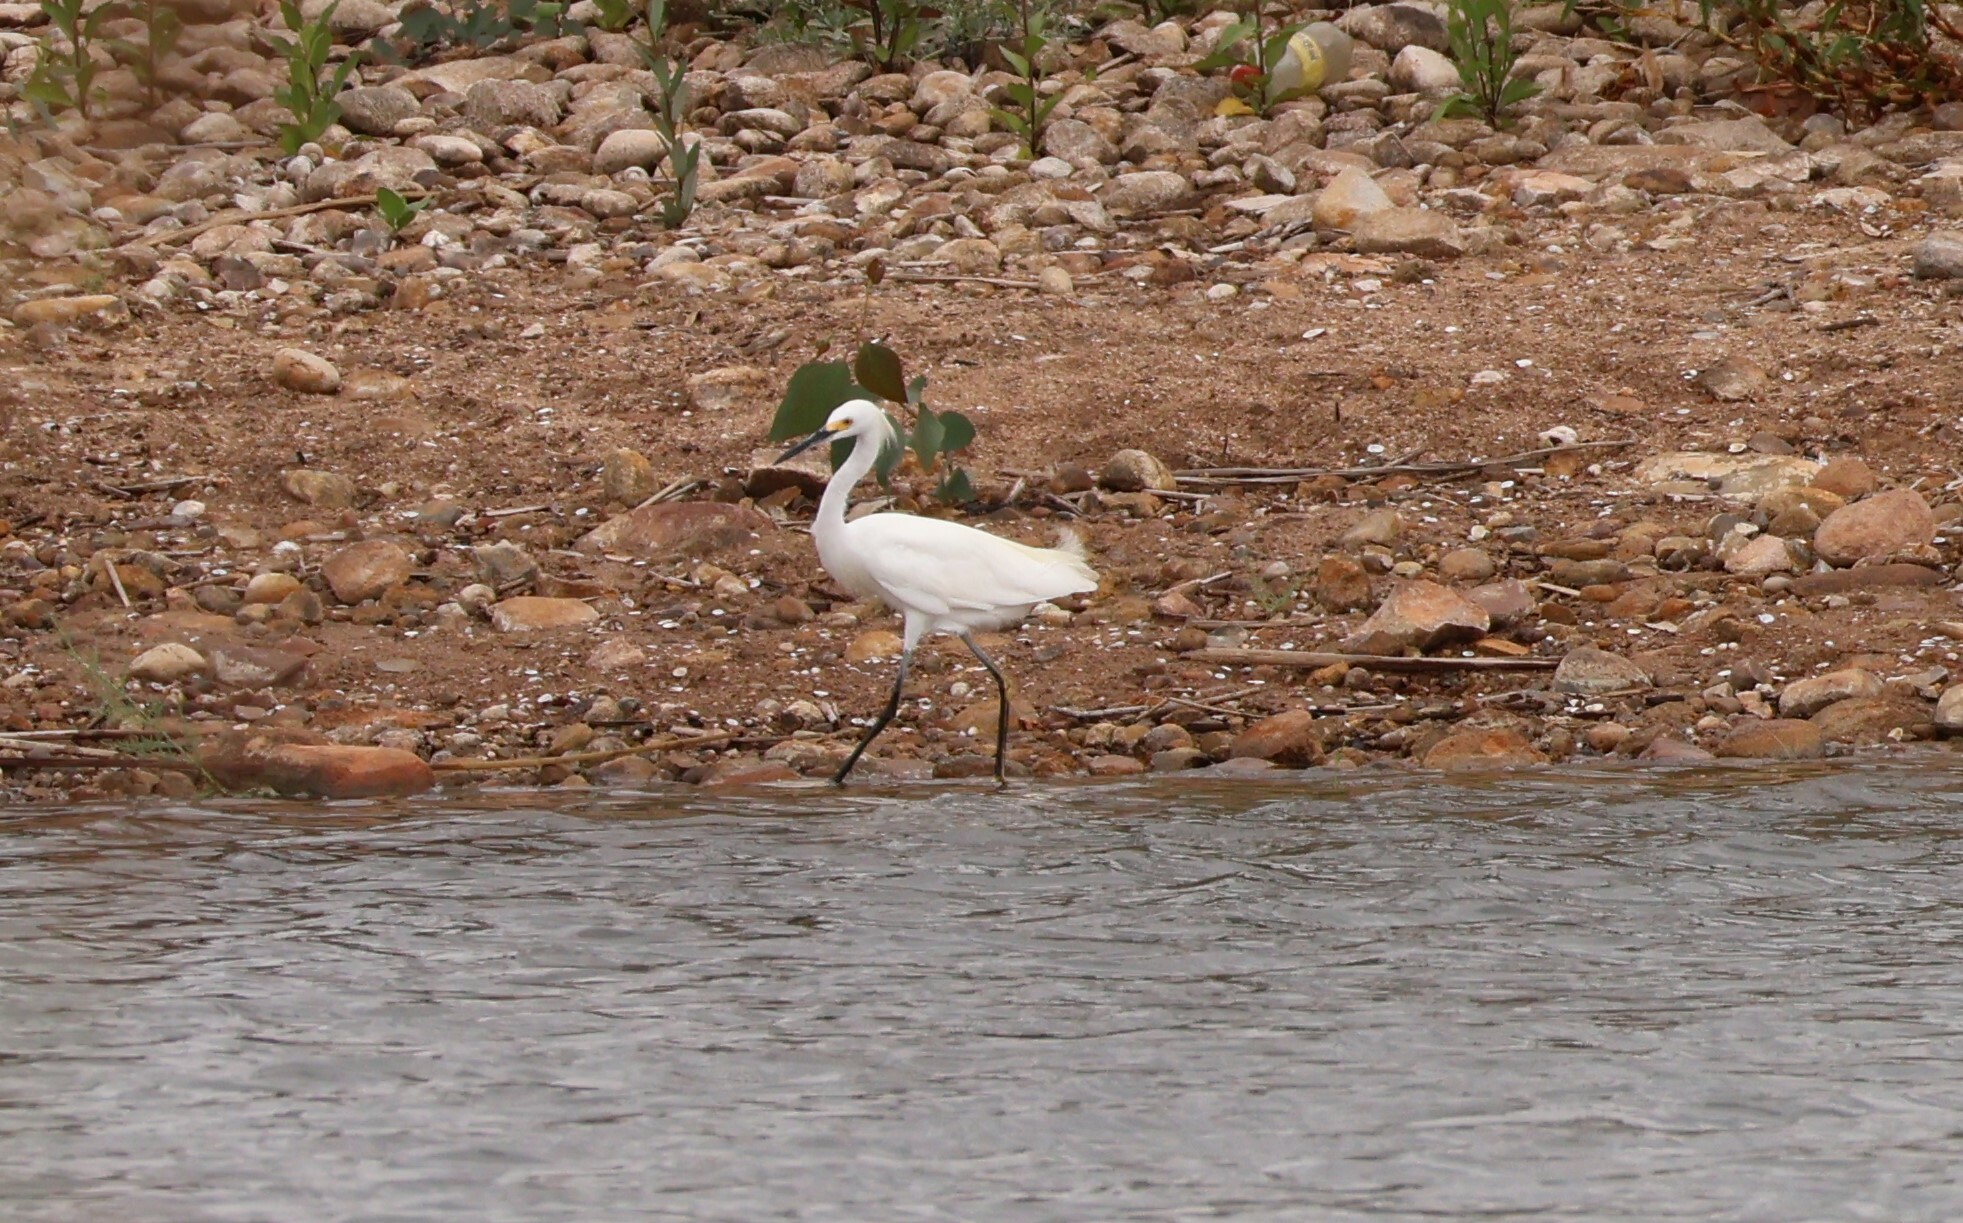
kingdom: Animalia
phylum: Chordata
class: Aves
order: Pelecaniformes
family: Ardeidae
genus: Egretta
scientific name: Egretta thula
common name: Snowy egret
